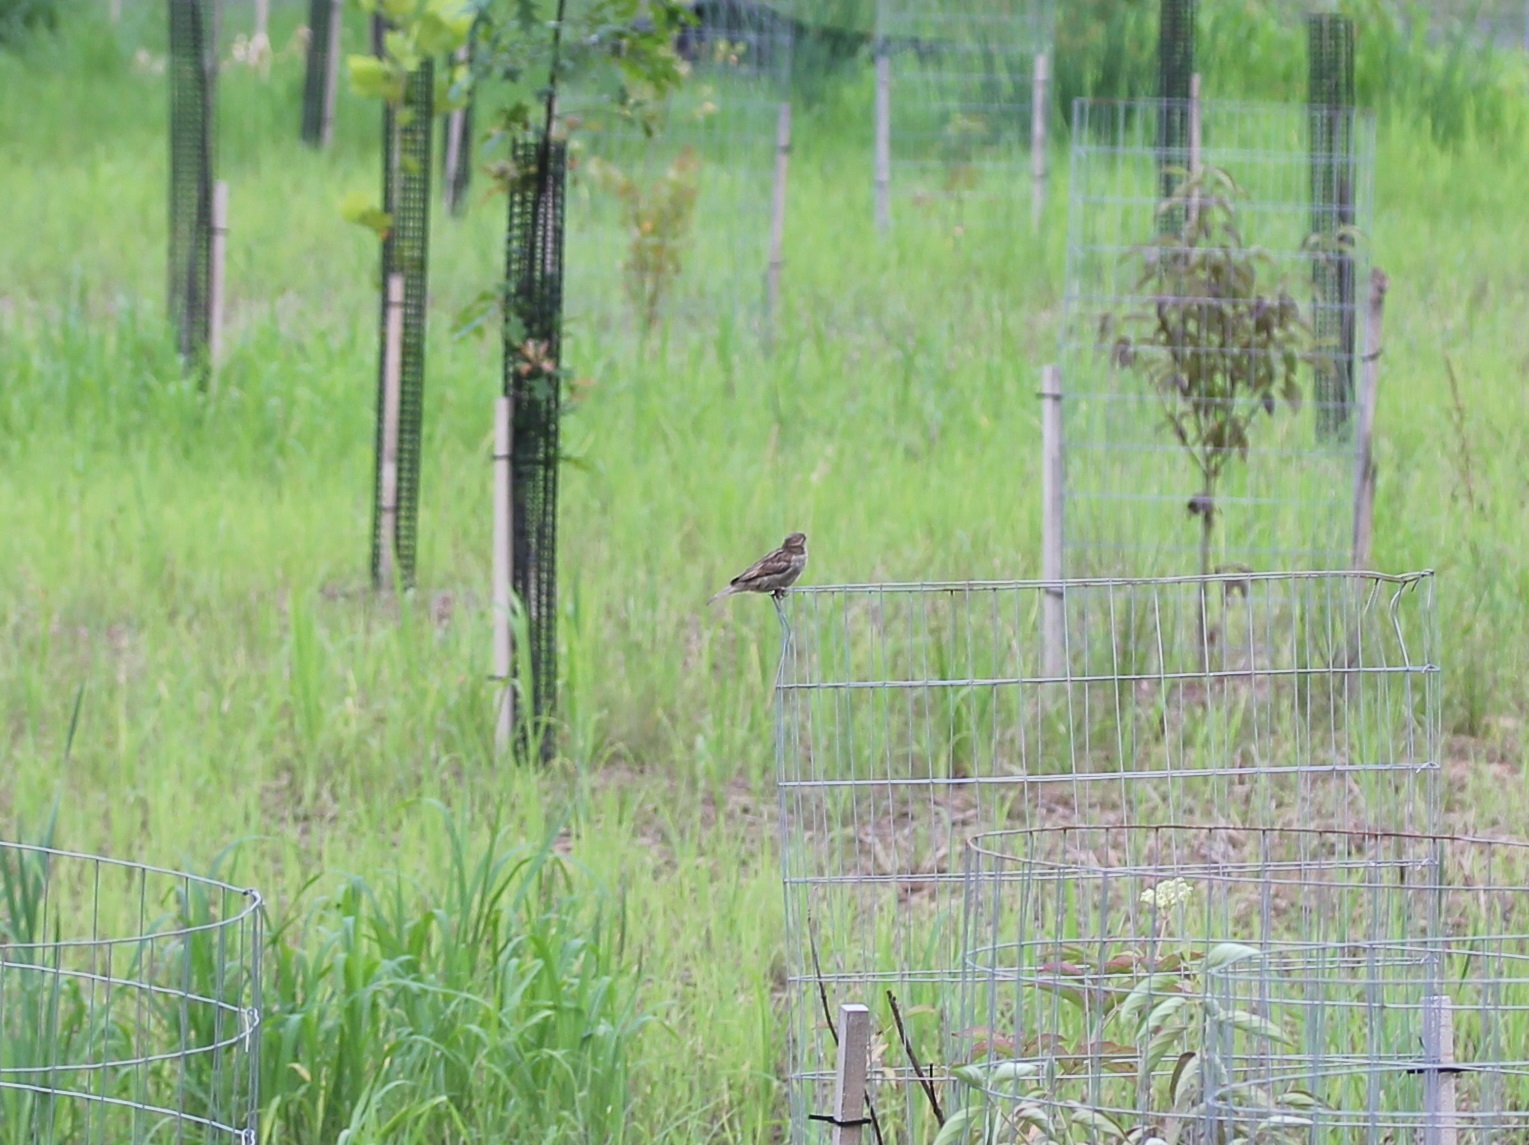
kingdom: Animalia
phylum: Chordata
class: Aves
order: Passeriformes
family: Passeridae
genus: Passer
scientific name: Passer domesticus
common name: House sparrow
